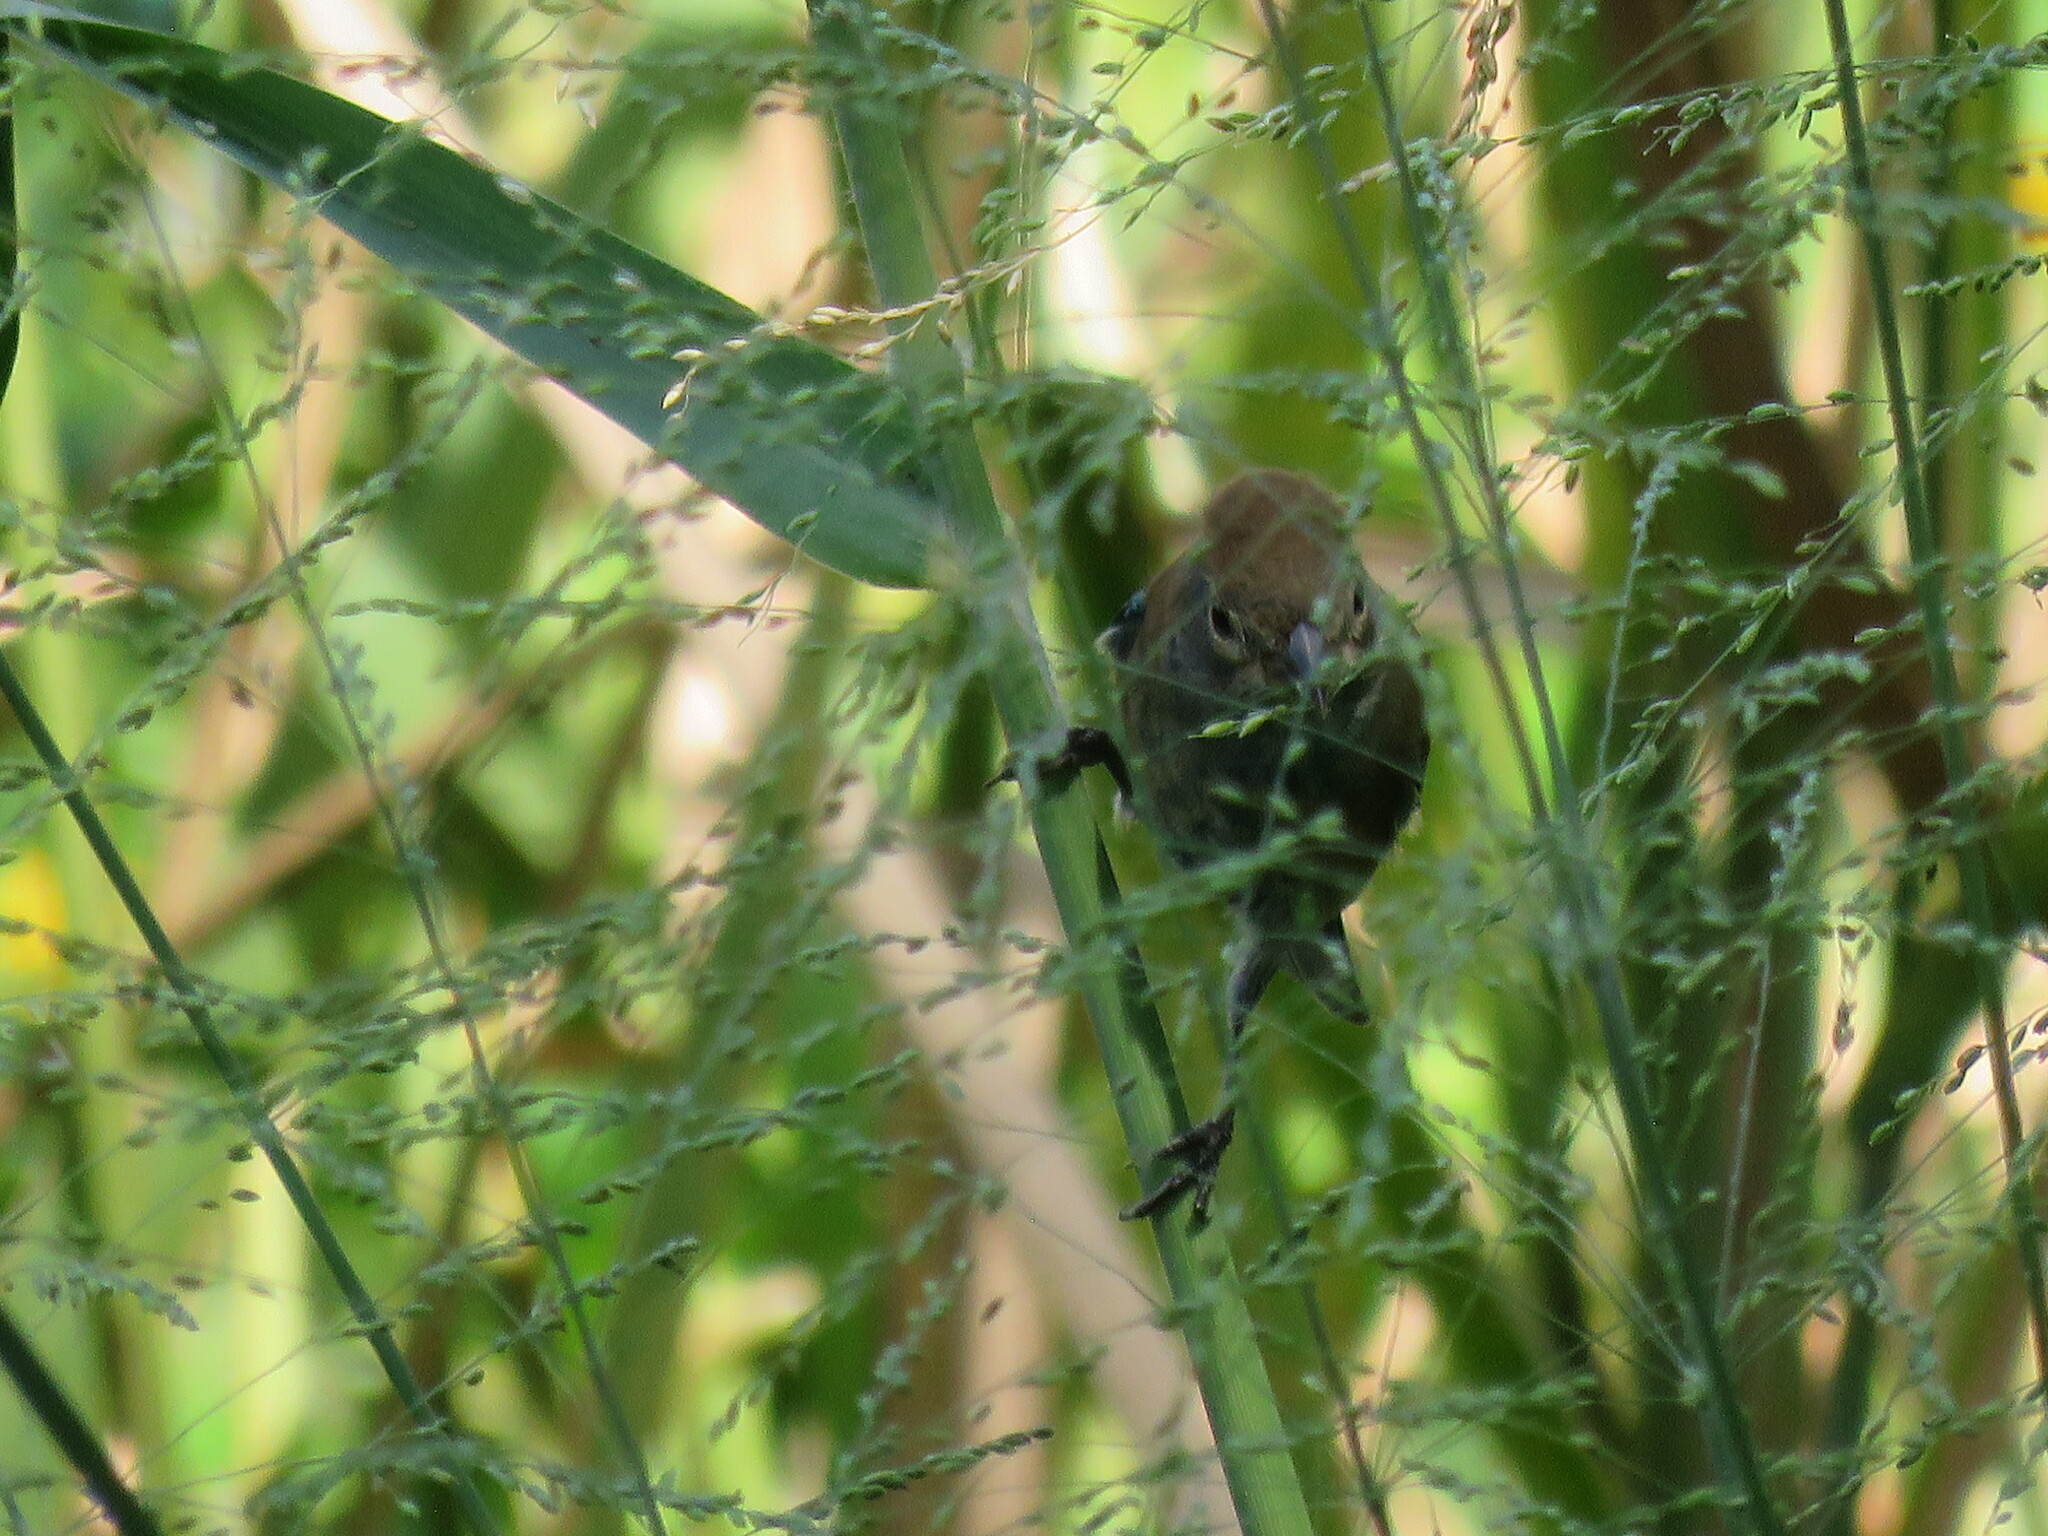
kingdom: Animalia
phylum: Chordata
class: Aves
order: Passeriformes
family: Cardinalidae
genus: Passerina
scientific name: Passerina cyanea
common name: Indigo bunting
